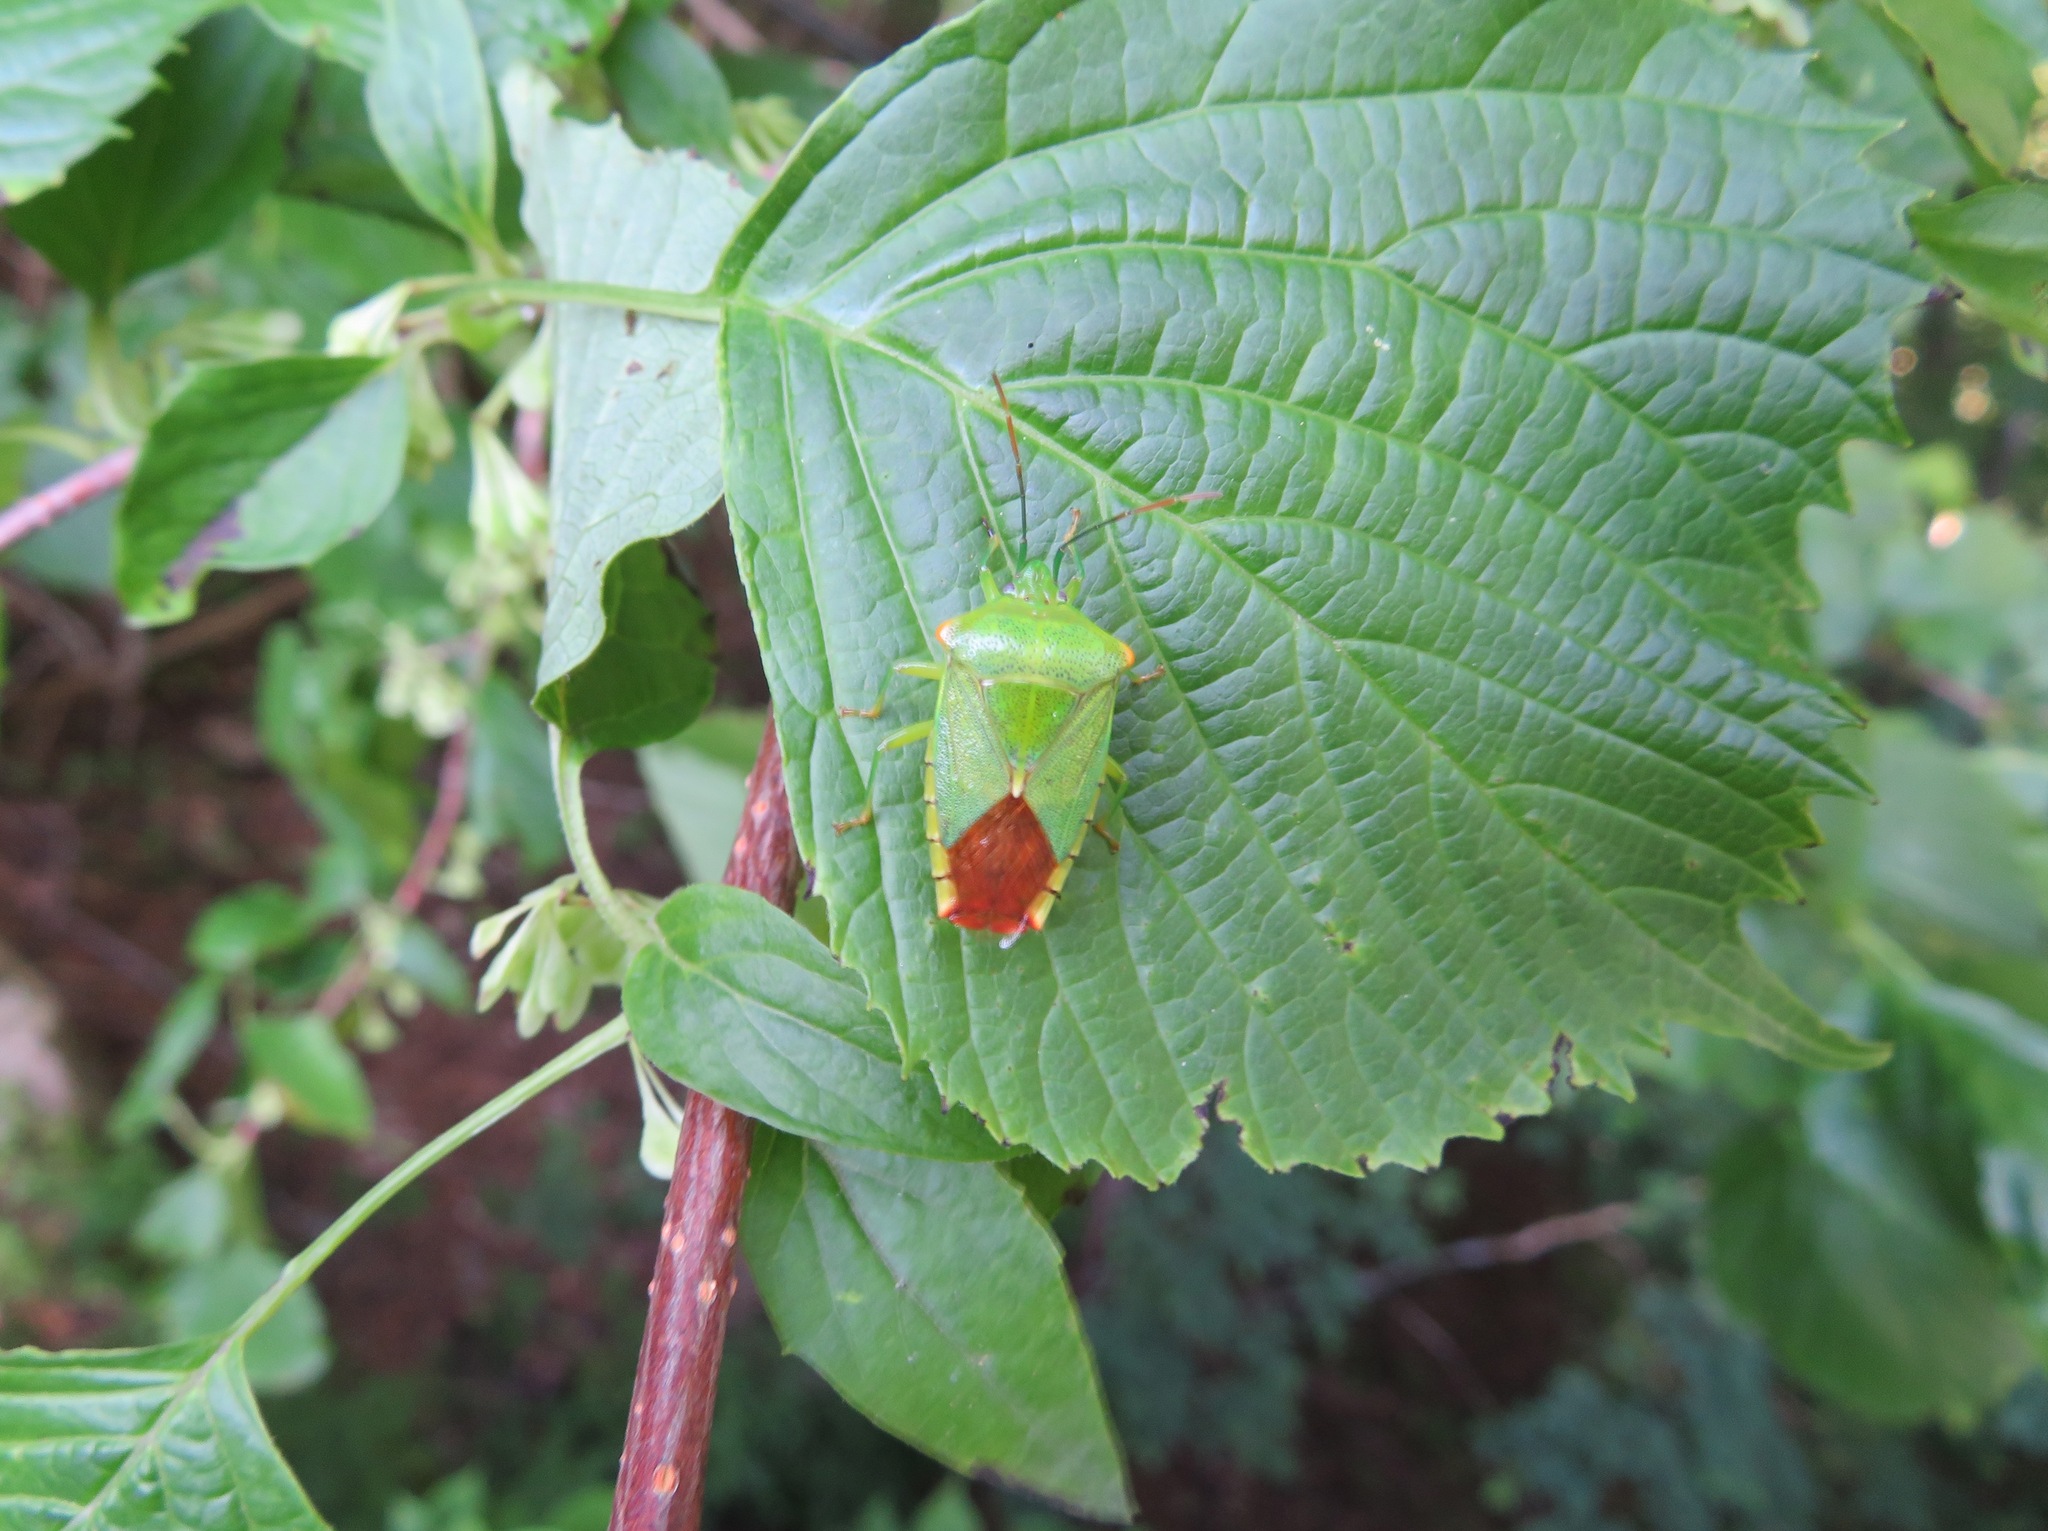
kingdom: Animalia
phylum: Arthropoda
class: Insecta
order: Hemiptera
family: Acanthosomatidae
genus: Acanthosoma
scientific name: Acanthosoma forficula
